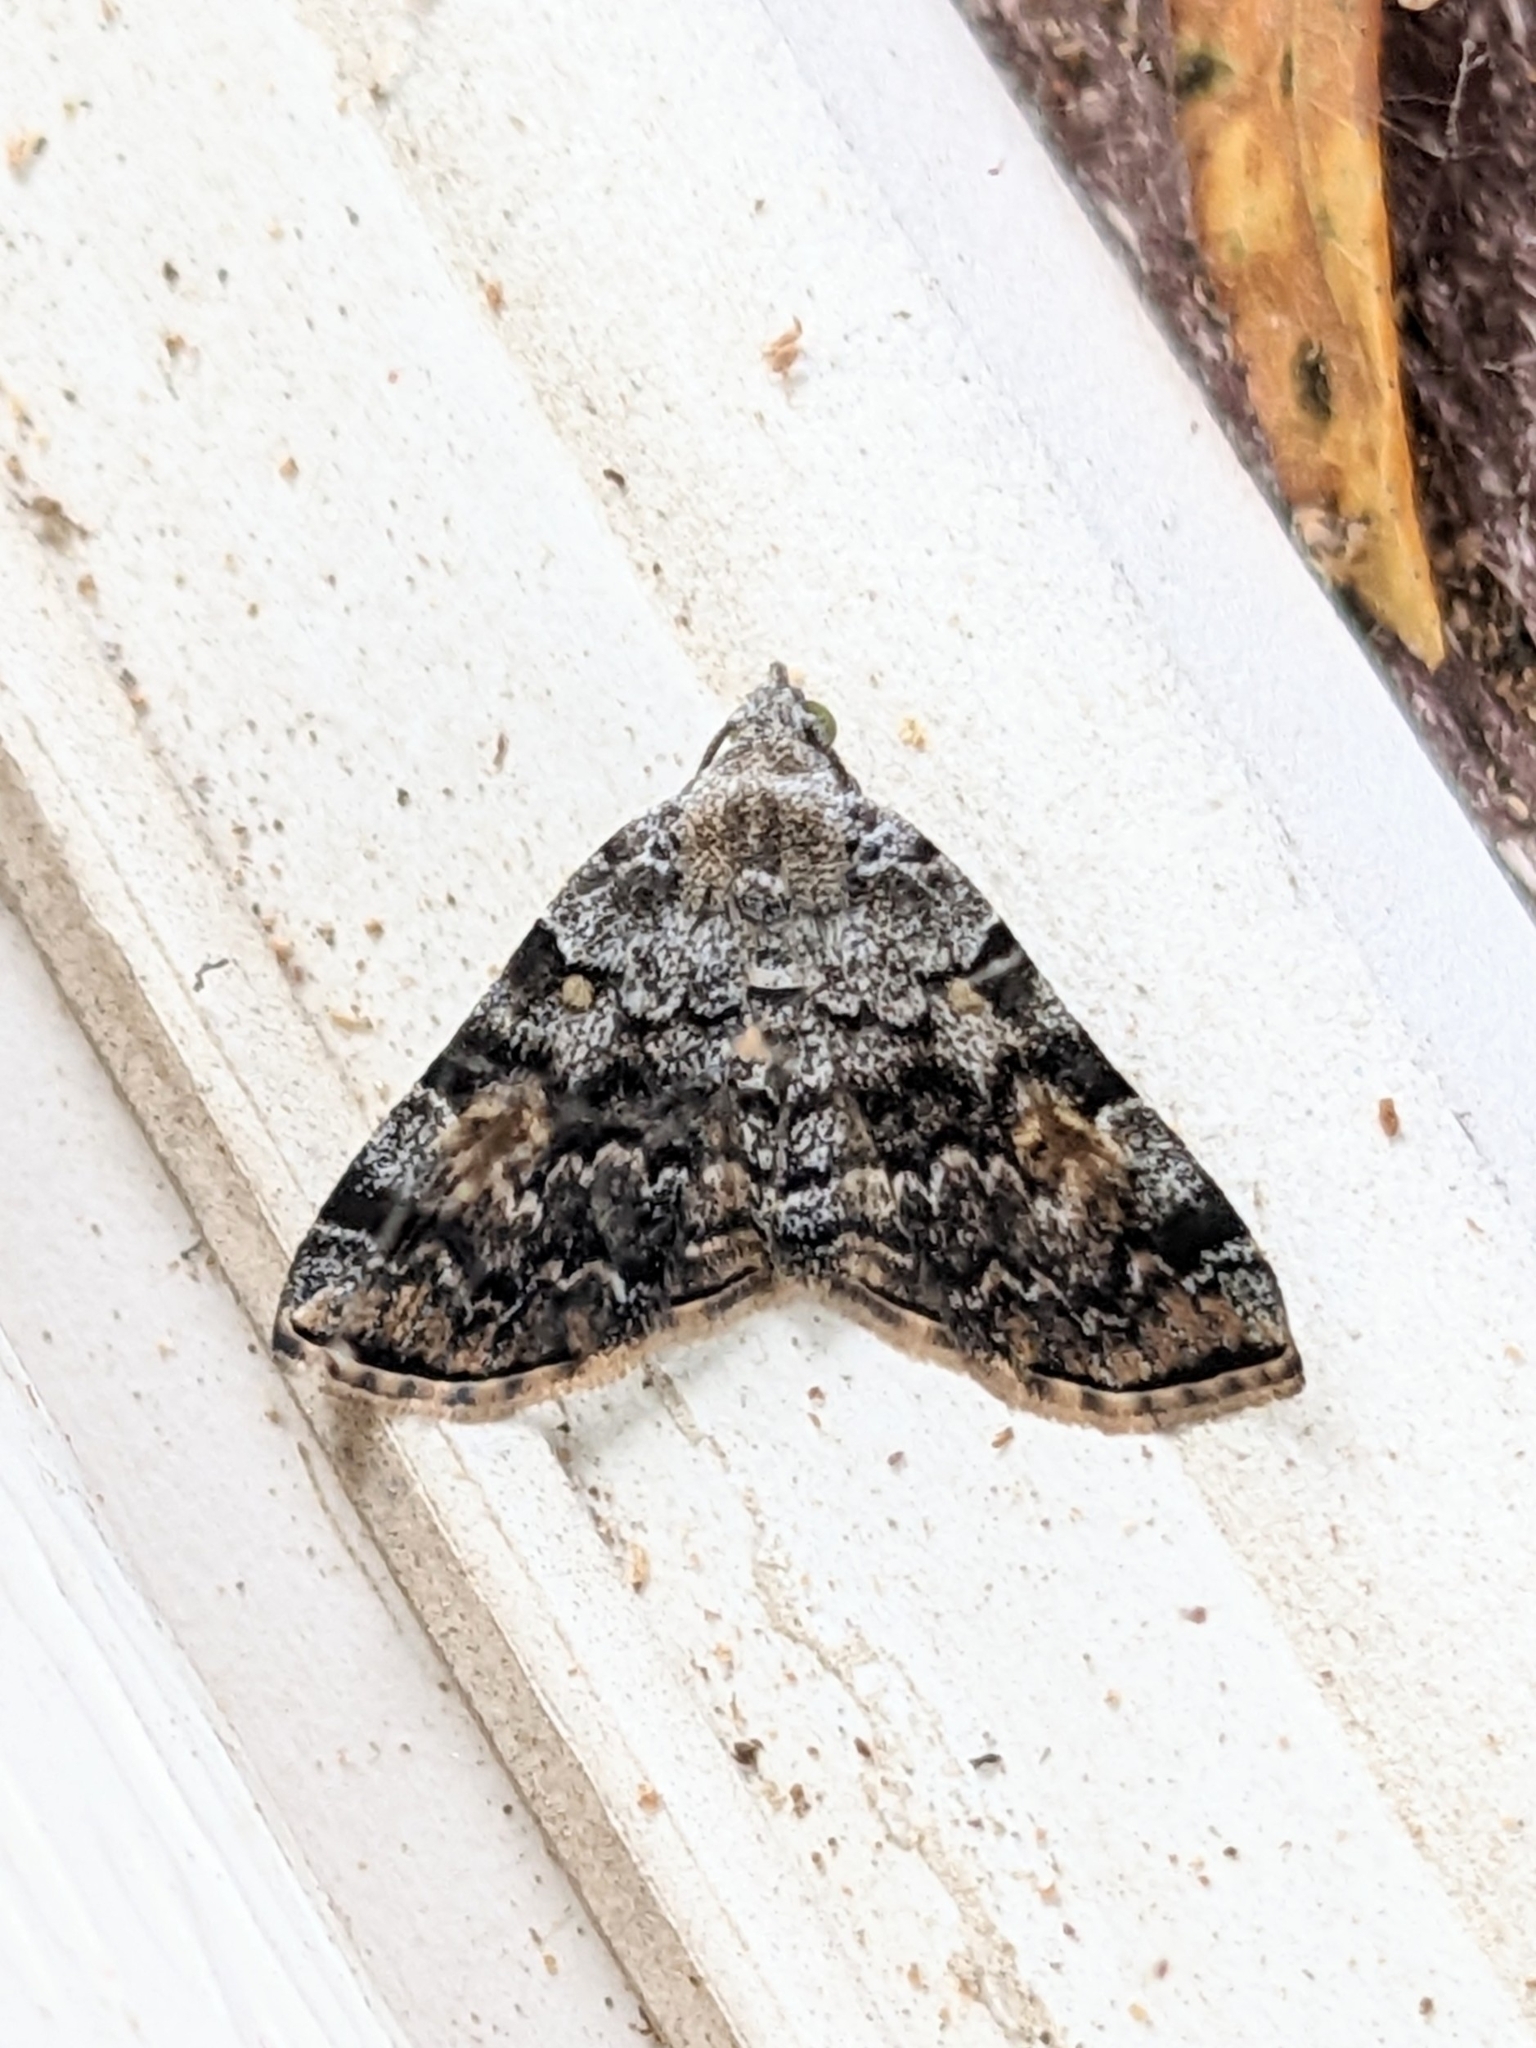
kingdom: Animalia
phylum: Arthropoda
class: Insecta
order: Lepidoptera
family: Erebidae
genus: Idia
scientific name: Idia americalis
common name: American idia moth
